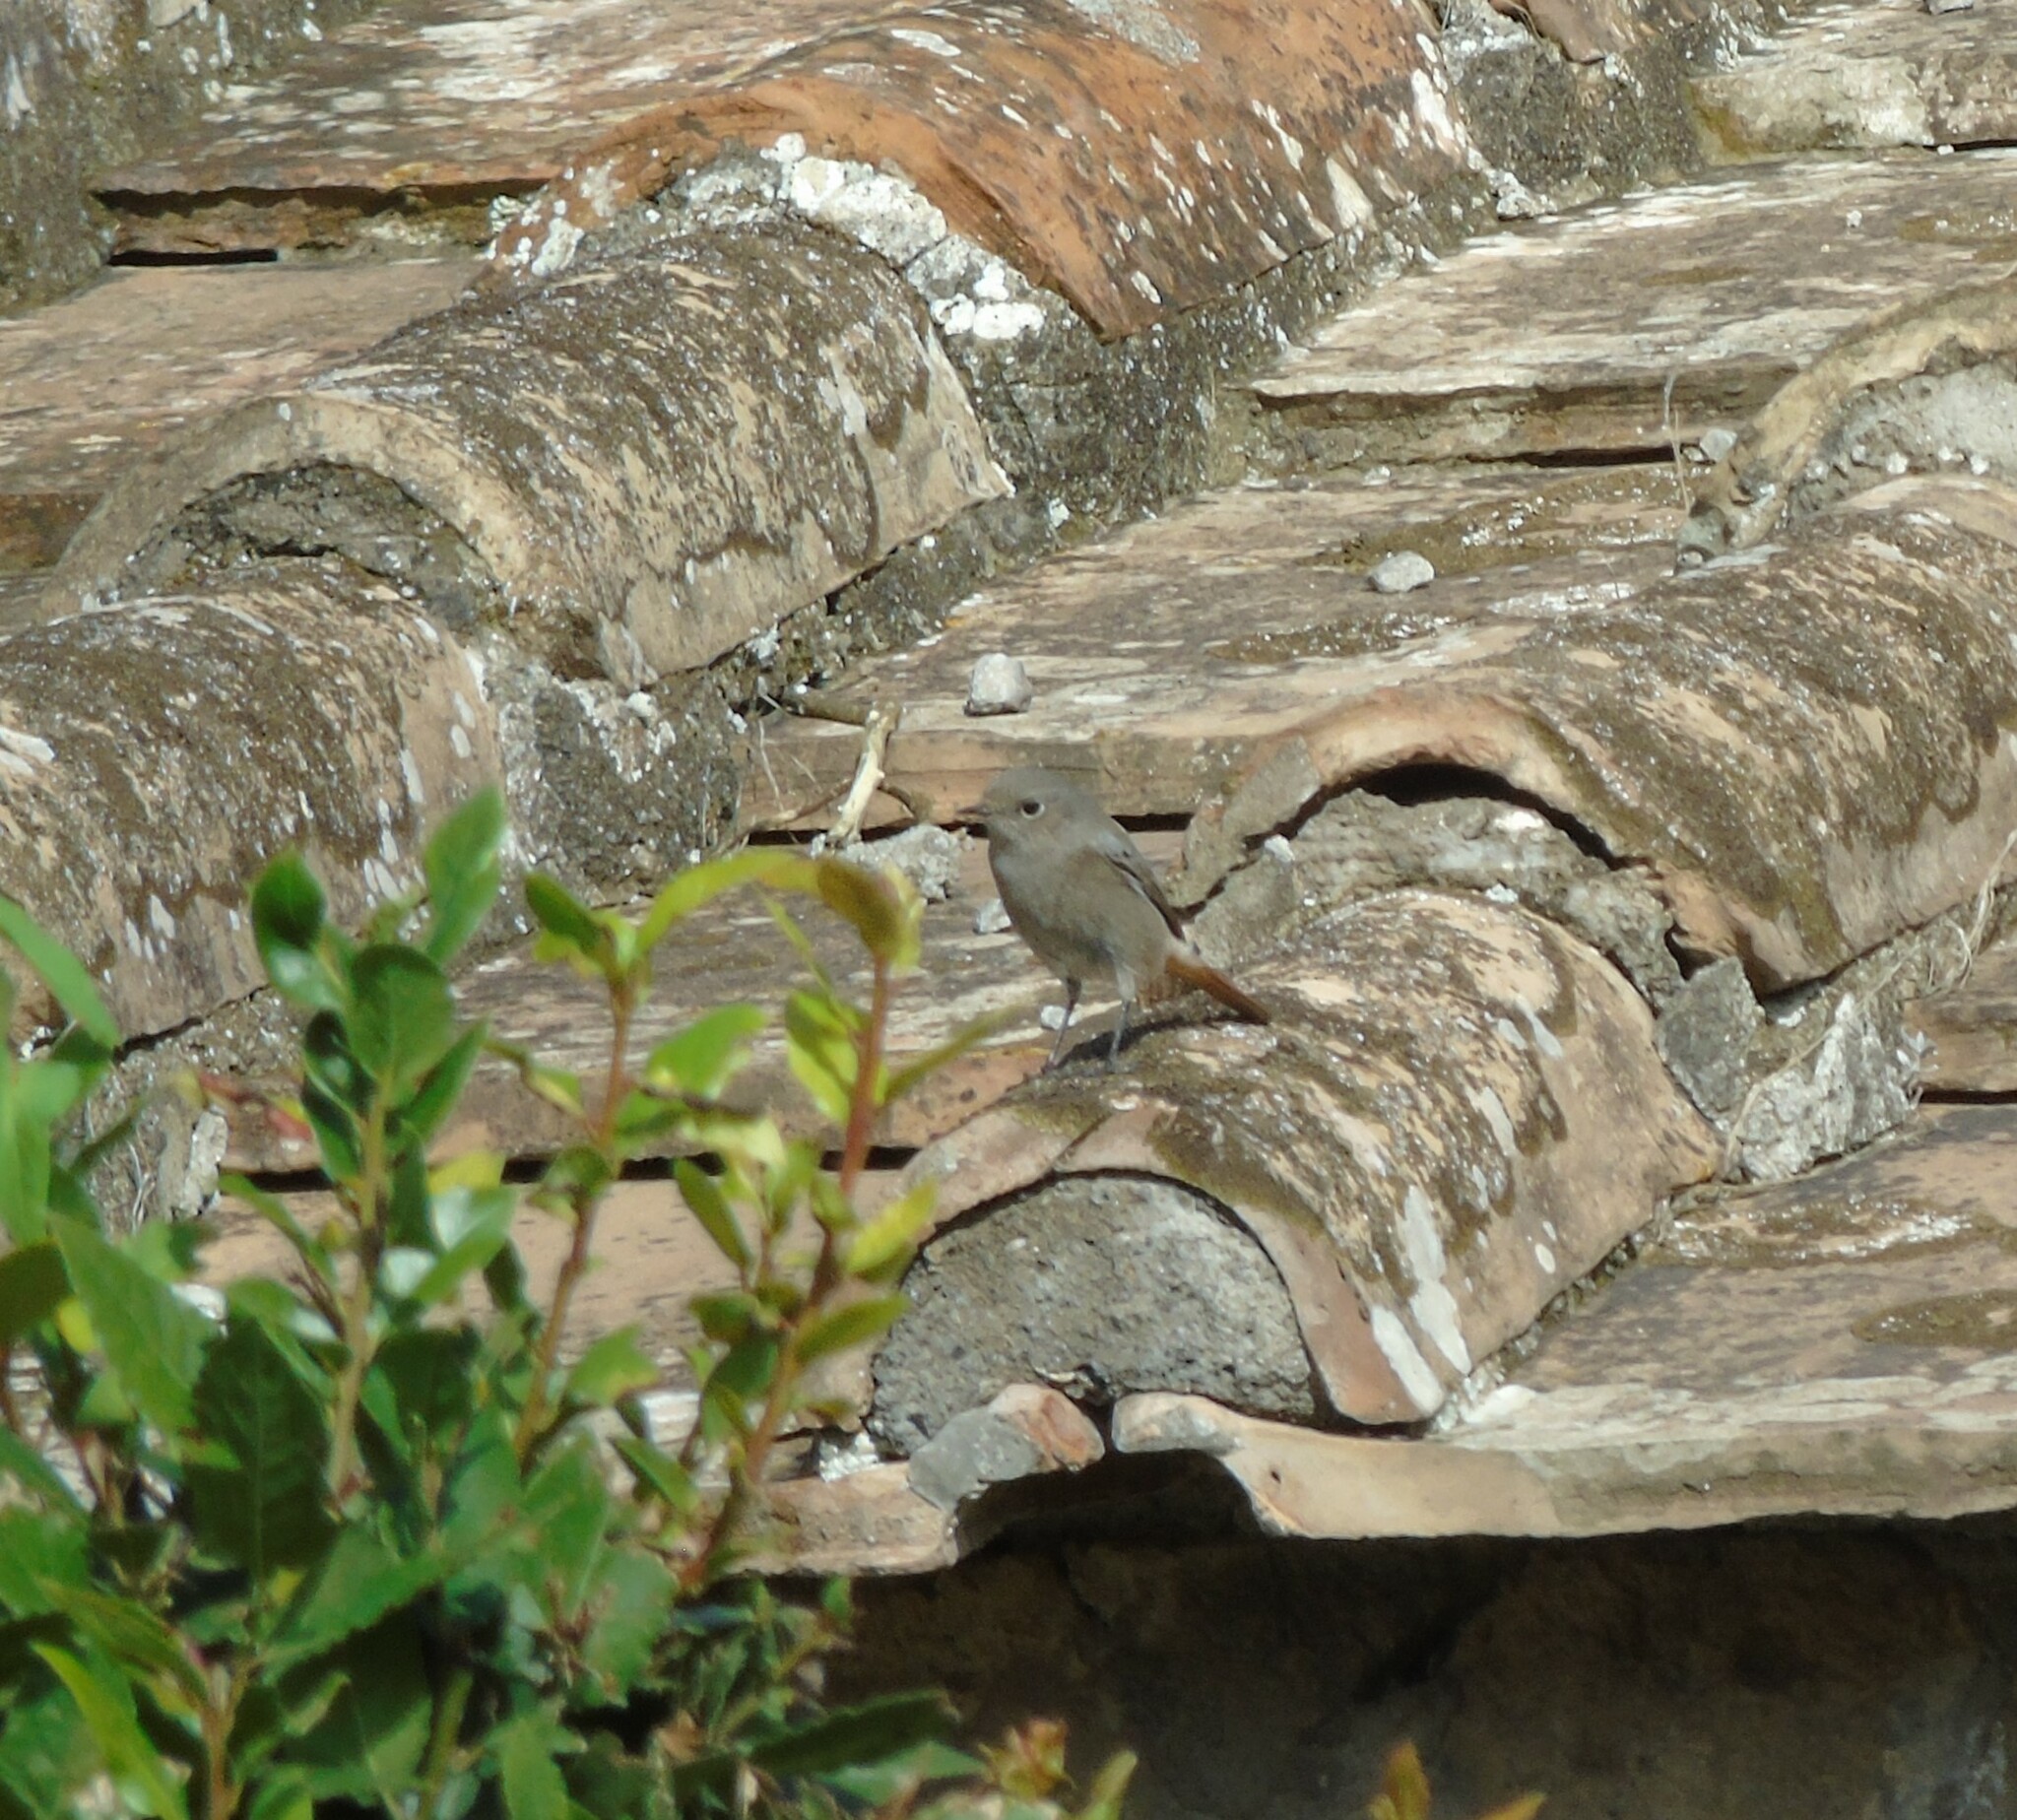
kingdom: Animalia
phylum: Chordata
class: Aves
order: Passeriformes
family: Muscicapidae
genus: Phoenicurus
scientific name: Phoenicurus ochruros
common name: Black redstart
